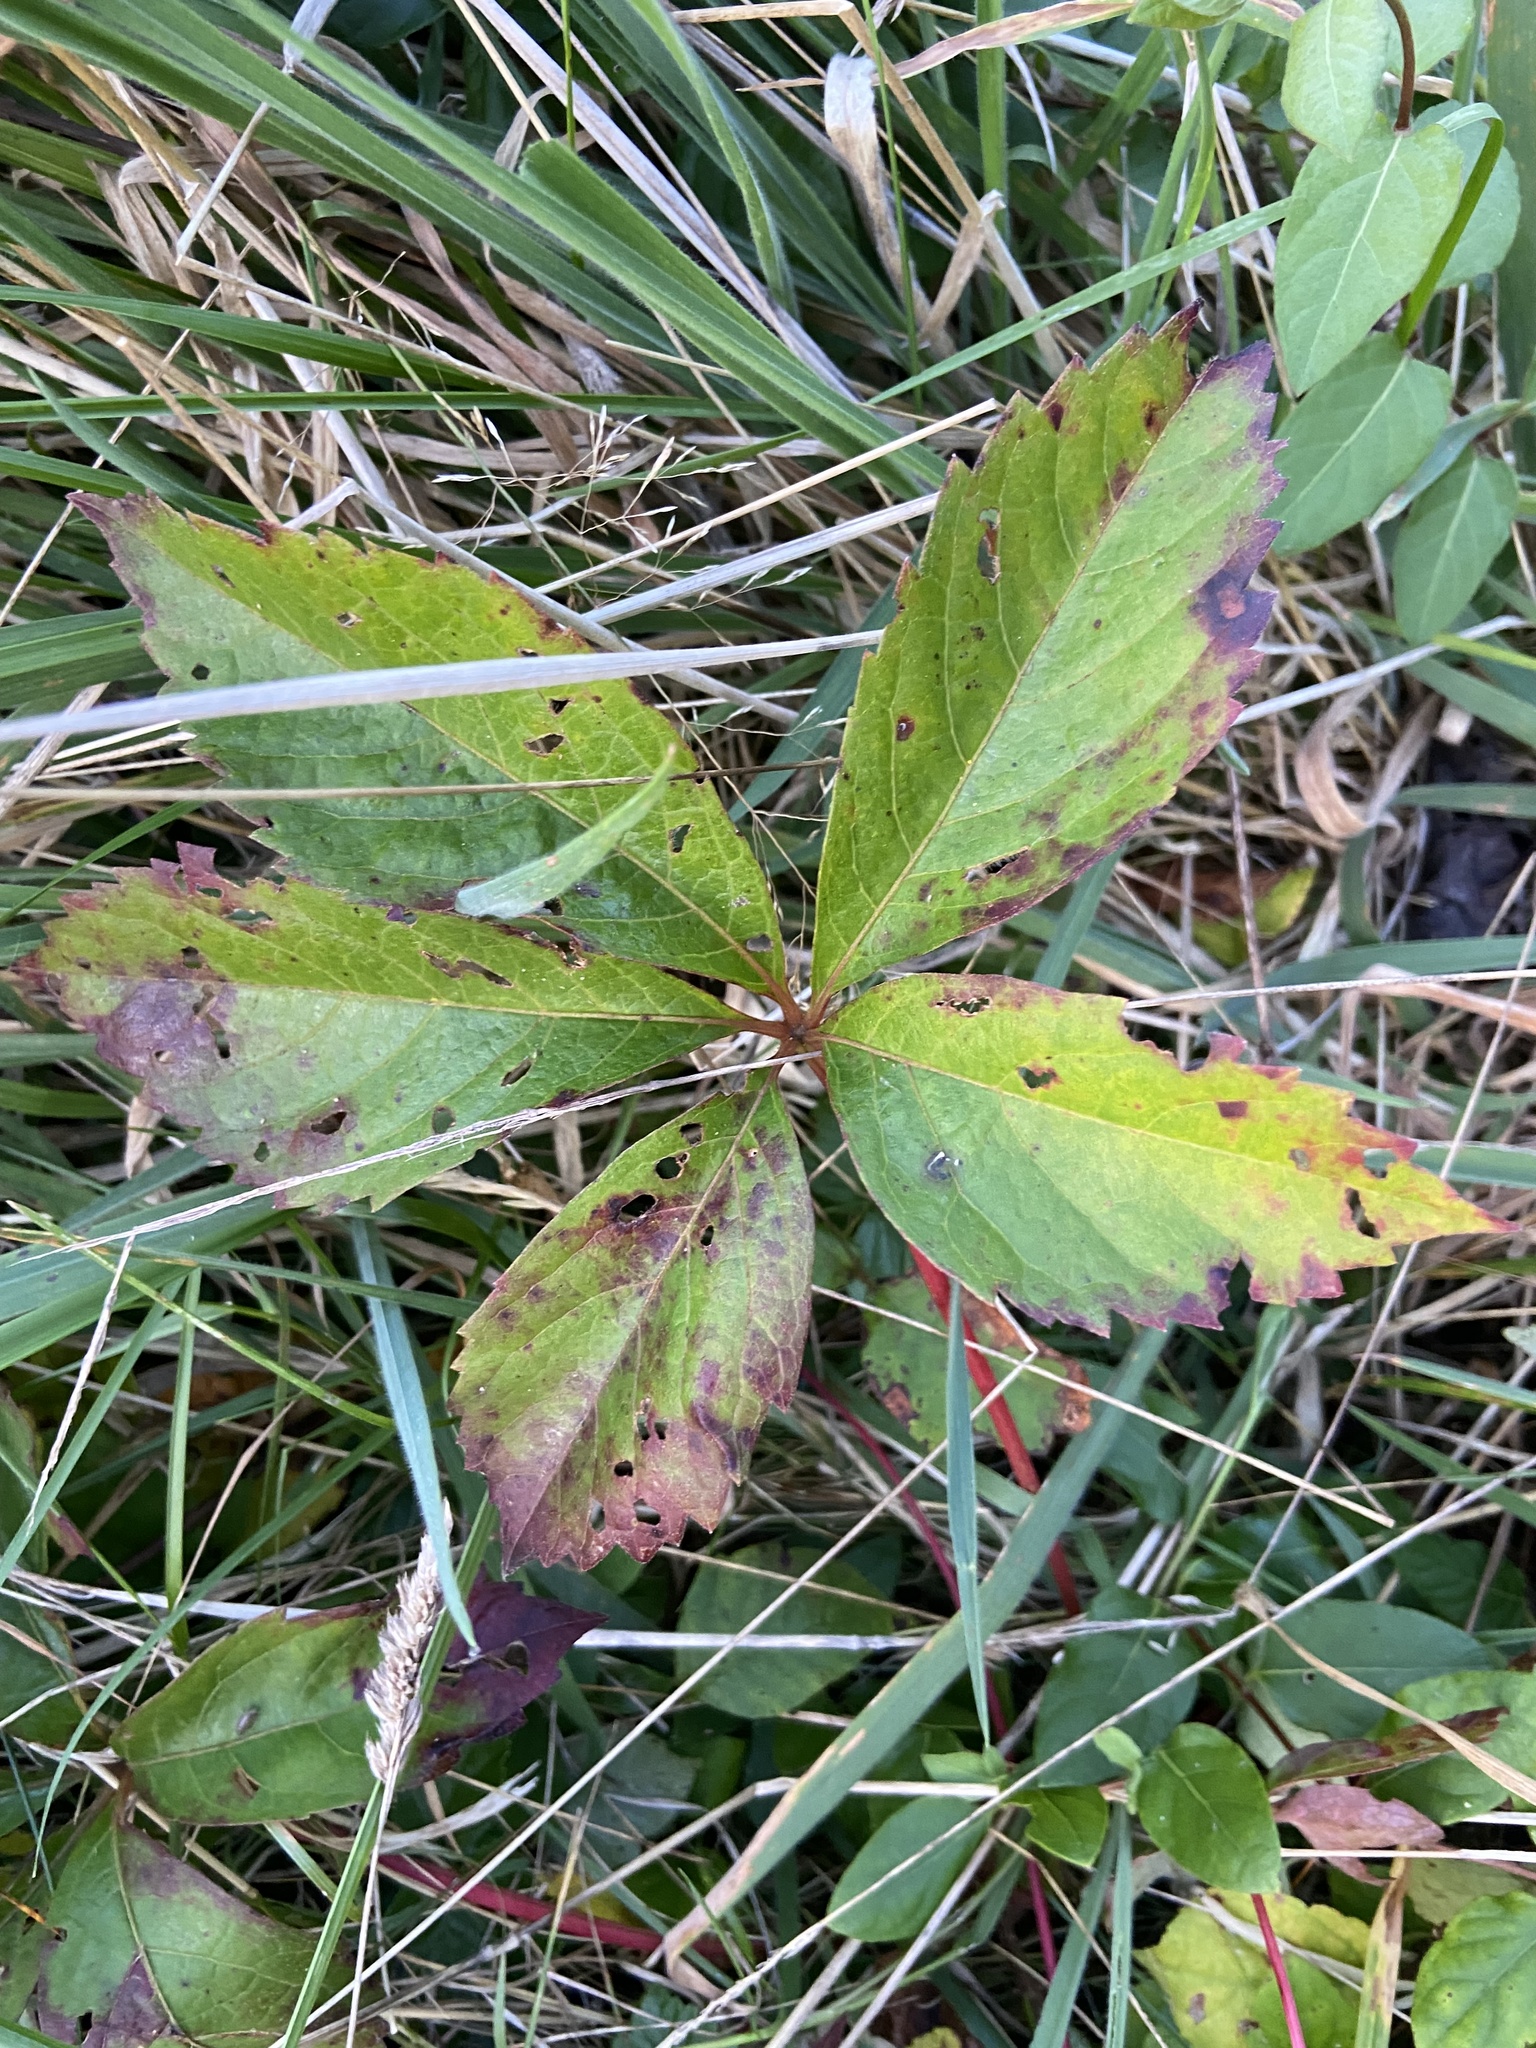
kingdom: Plantae
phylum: Tracheophyta
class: Magnoliopsida
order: Vitales
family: Vitaceae
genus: Parthenocissus
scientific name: Parthenocissus quinquefolia
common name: Virginia-creeper
